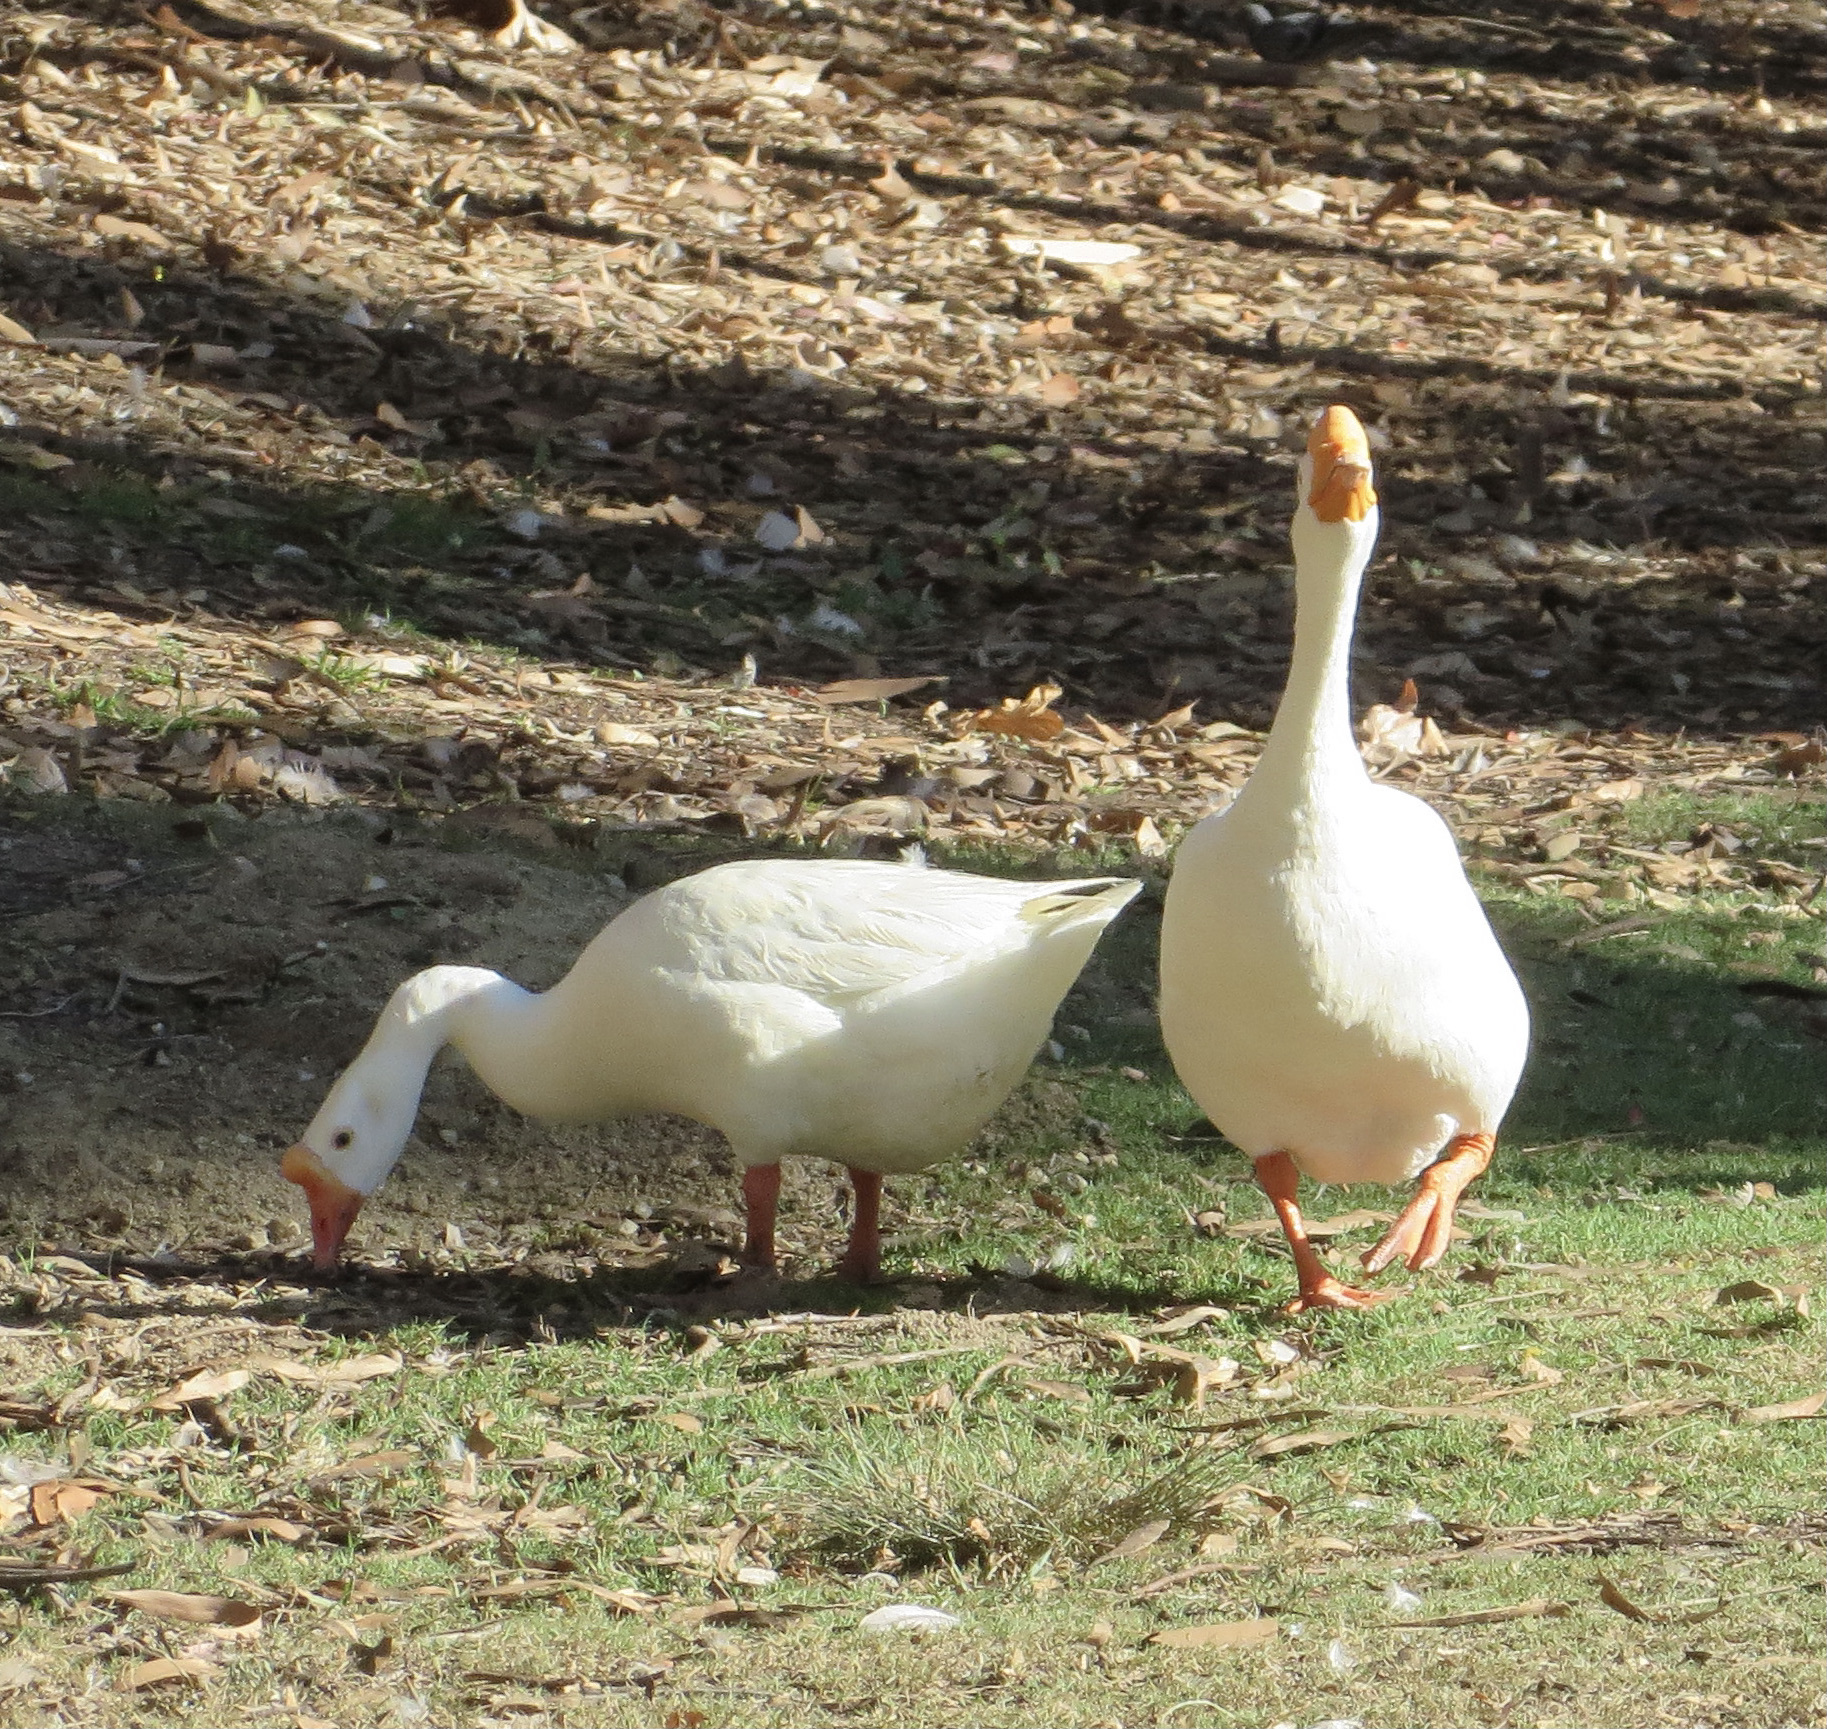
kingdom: Animalia
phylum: Chordata
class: Aves
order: Anseriformes
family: Anatidae
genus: Anser
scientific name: Anser cygnoides
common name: Swan goose
